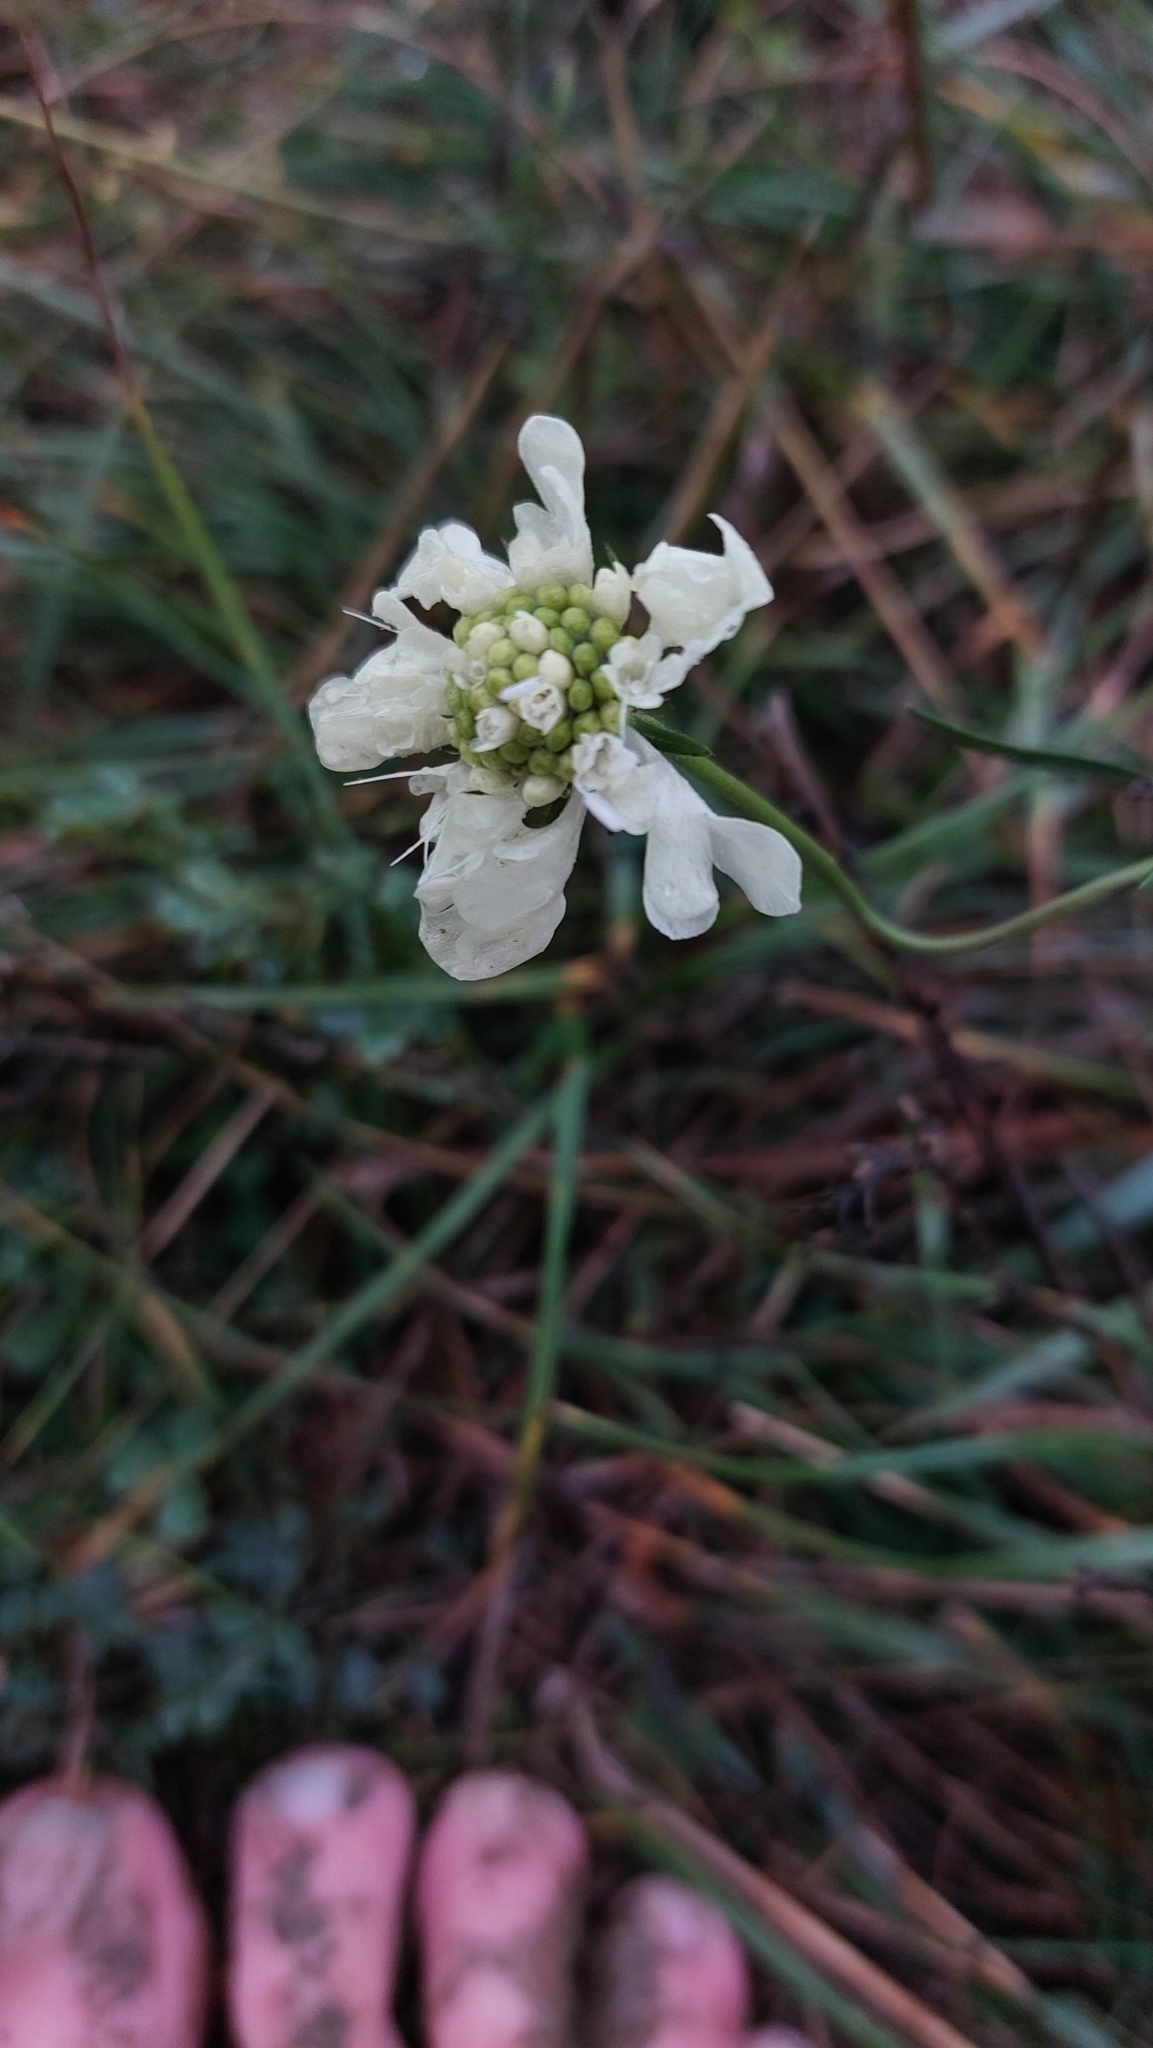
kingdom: Plantae
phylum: Tracheophyta
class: Magnoliopsida
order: Dipsacales
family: Caprifoliaceae
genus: Scabiosa
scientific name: Scabiosa ochroleuca
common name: Cream pincushions
